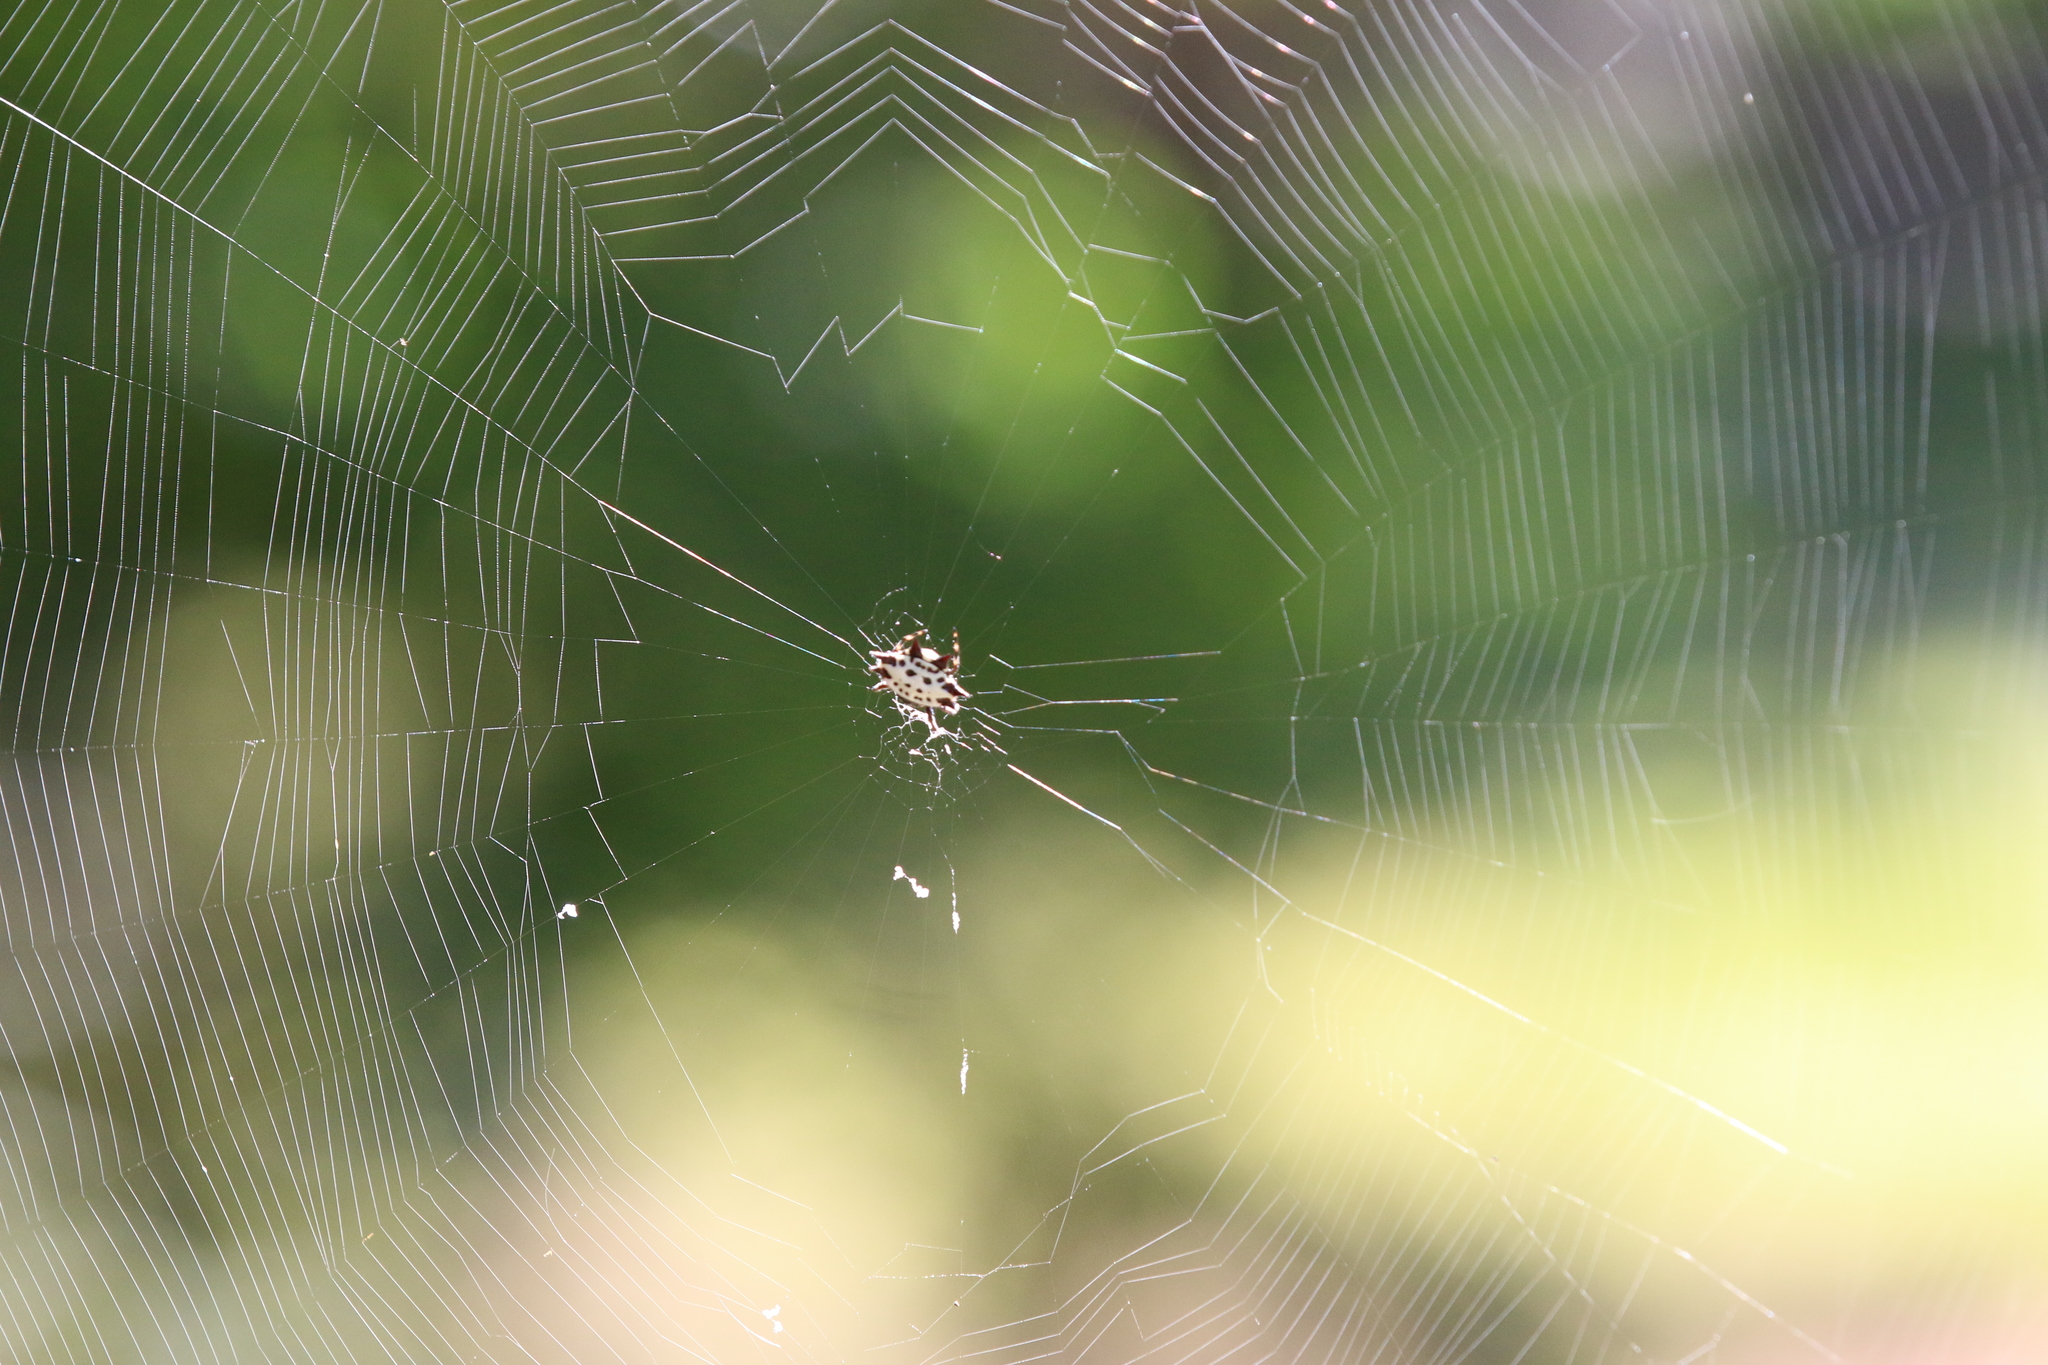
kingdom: Animalia
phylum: Arthropoda
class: Arachnida
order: Araneae
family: Araneidae
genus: Gasteracantha
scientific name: Gasteracantha cancriformis
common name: Orb weavers
